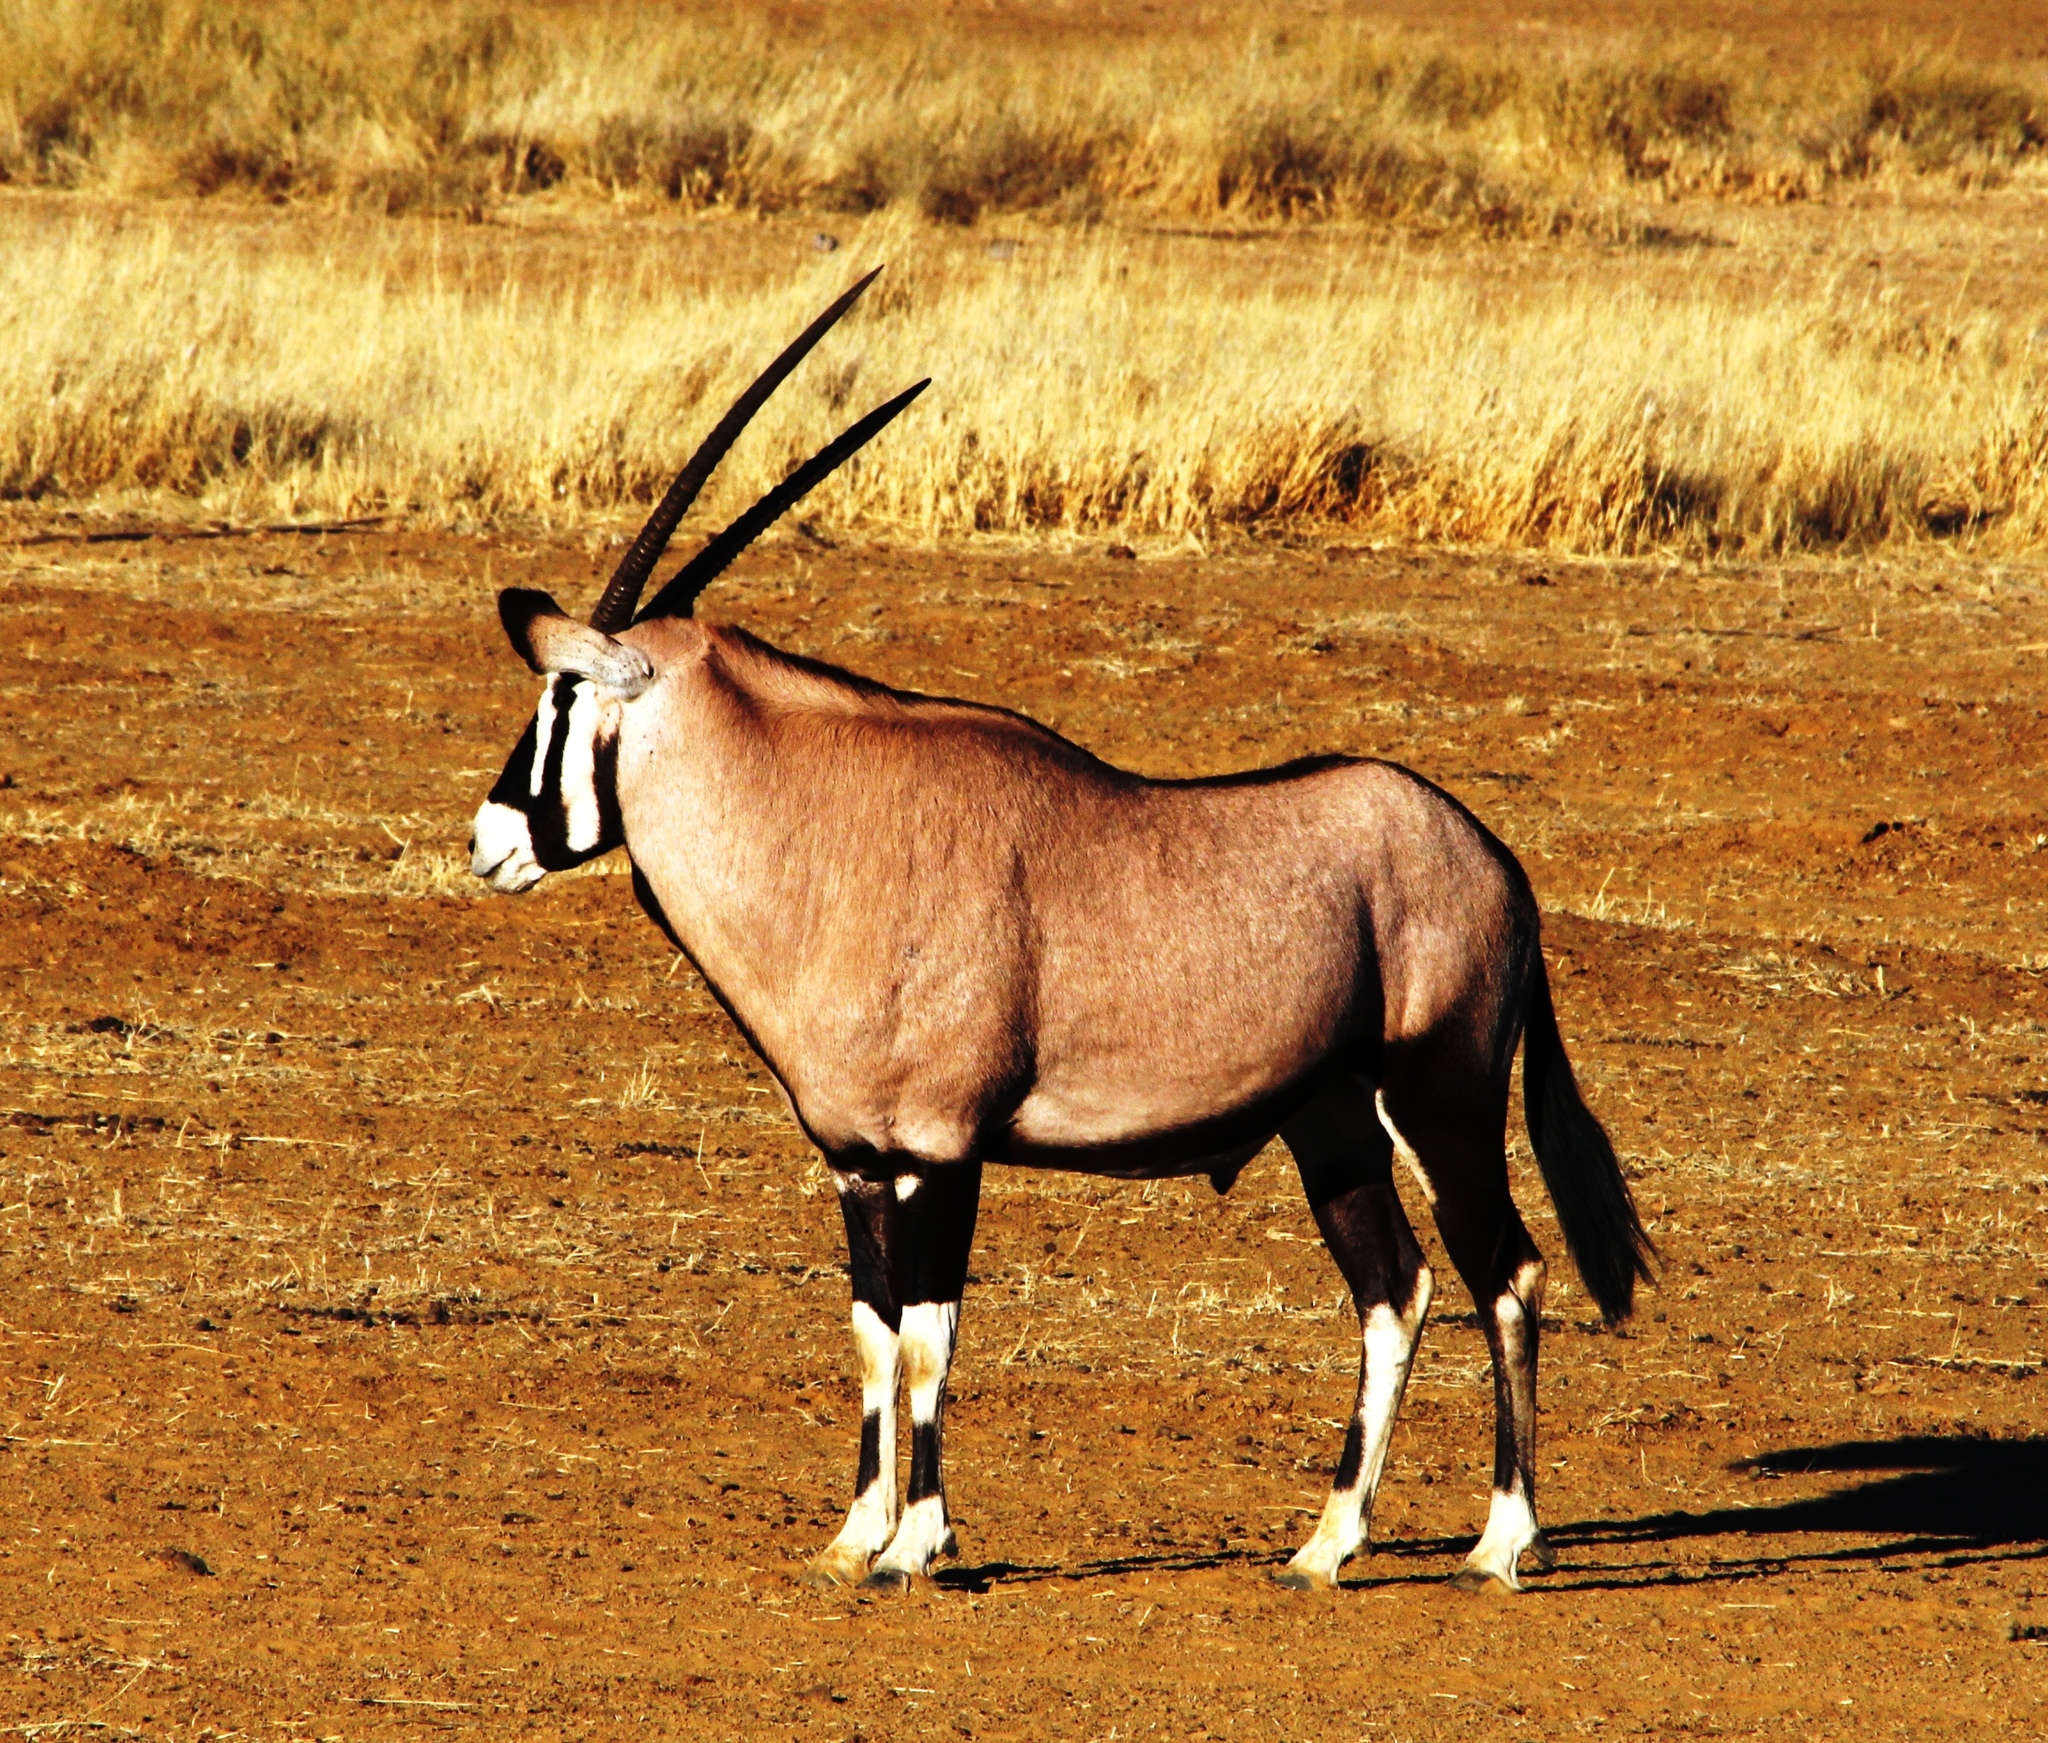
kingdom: Animalia
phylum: Chordata
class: Mammalia
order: Artiodactyla
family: Bovidae
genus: Oryx
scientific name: Oryx gazella
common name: Gemsbok
